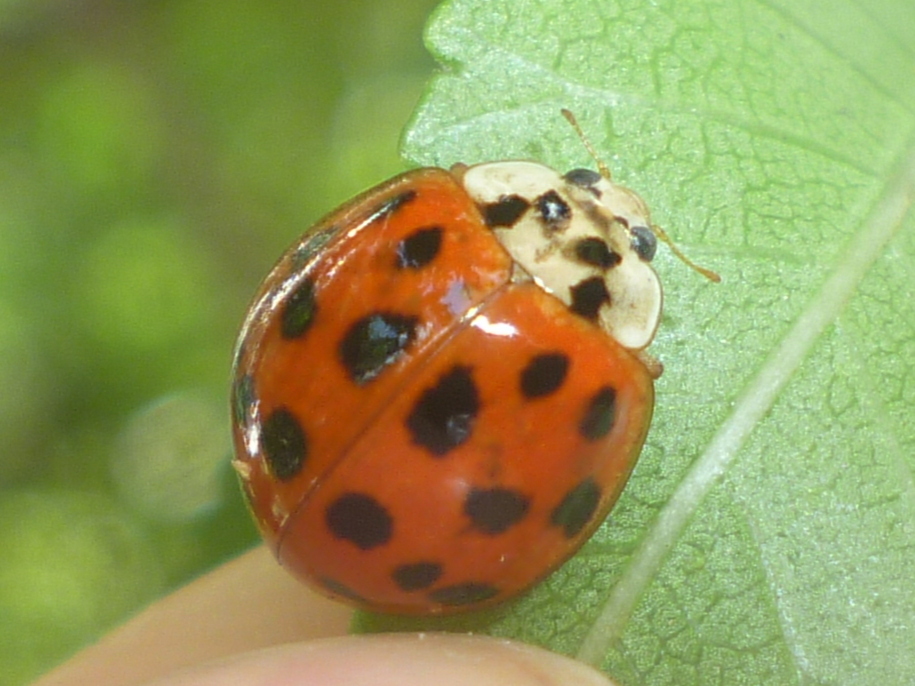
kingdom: Animalia
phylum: Arthropoda
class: Insecta
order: Coleoptera
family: Coccinellidae
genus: Harmonia
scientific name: Harmonia axyridis
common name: Harlequin ladybird
